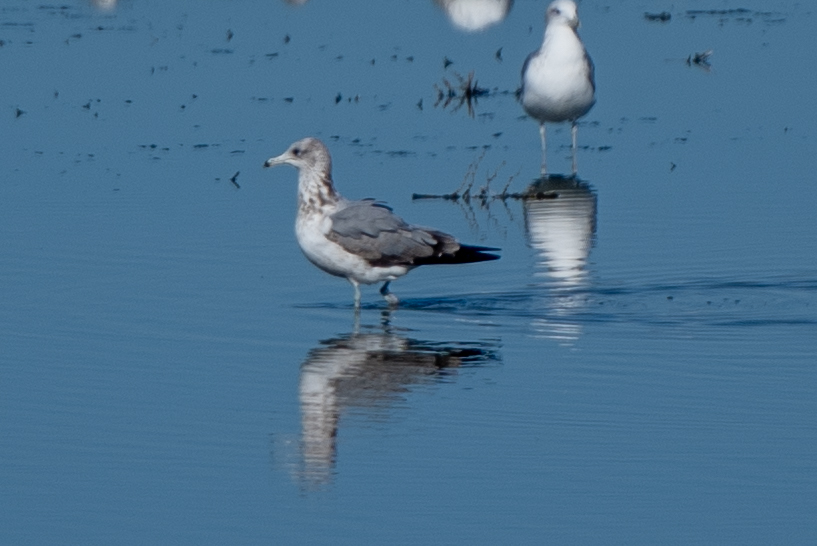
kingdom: Animalia
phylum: Chordata
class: Aves
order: Charadriiformes
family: Laridae
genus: Larus
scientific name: Larus californicus
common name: California gull
